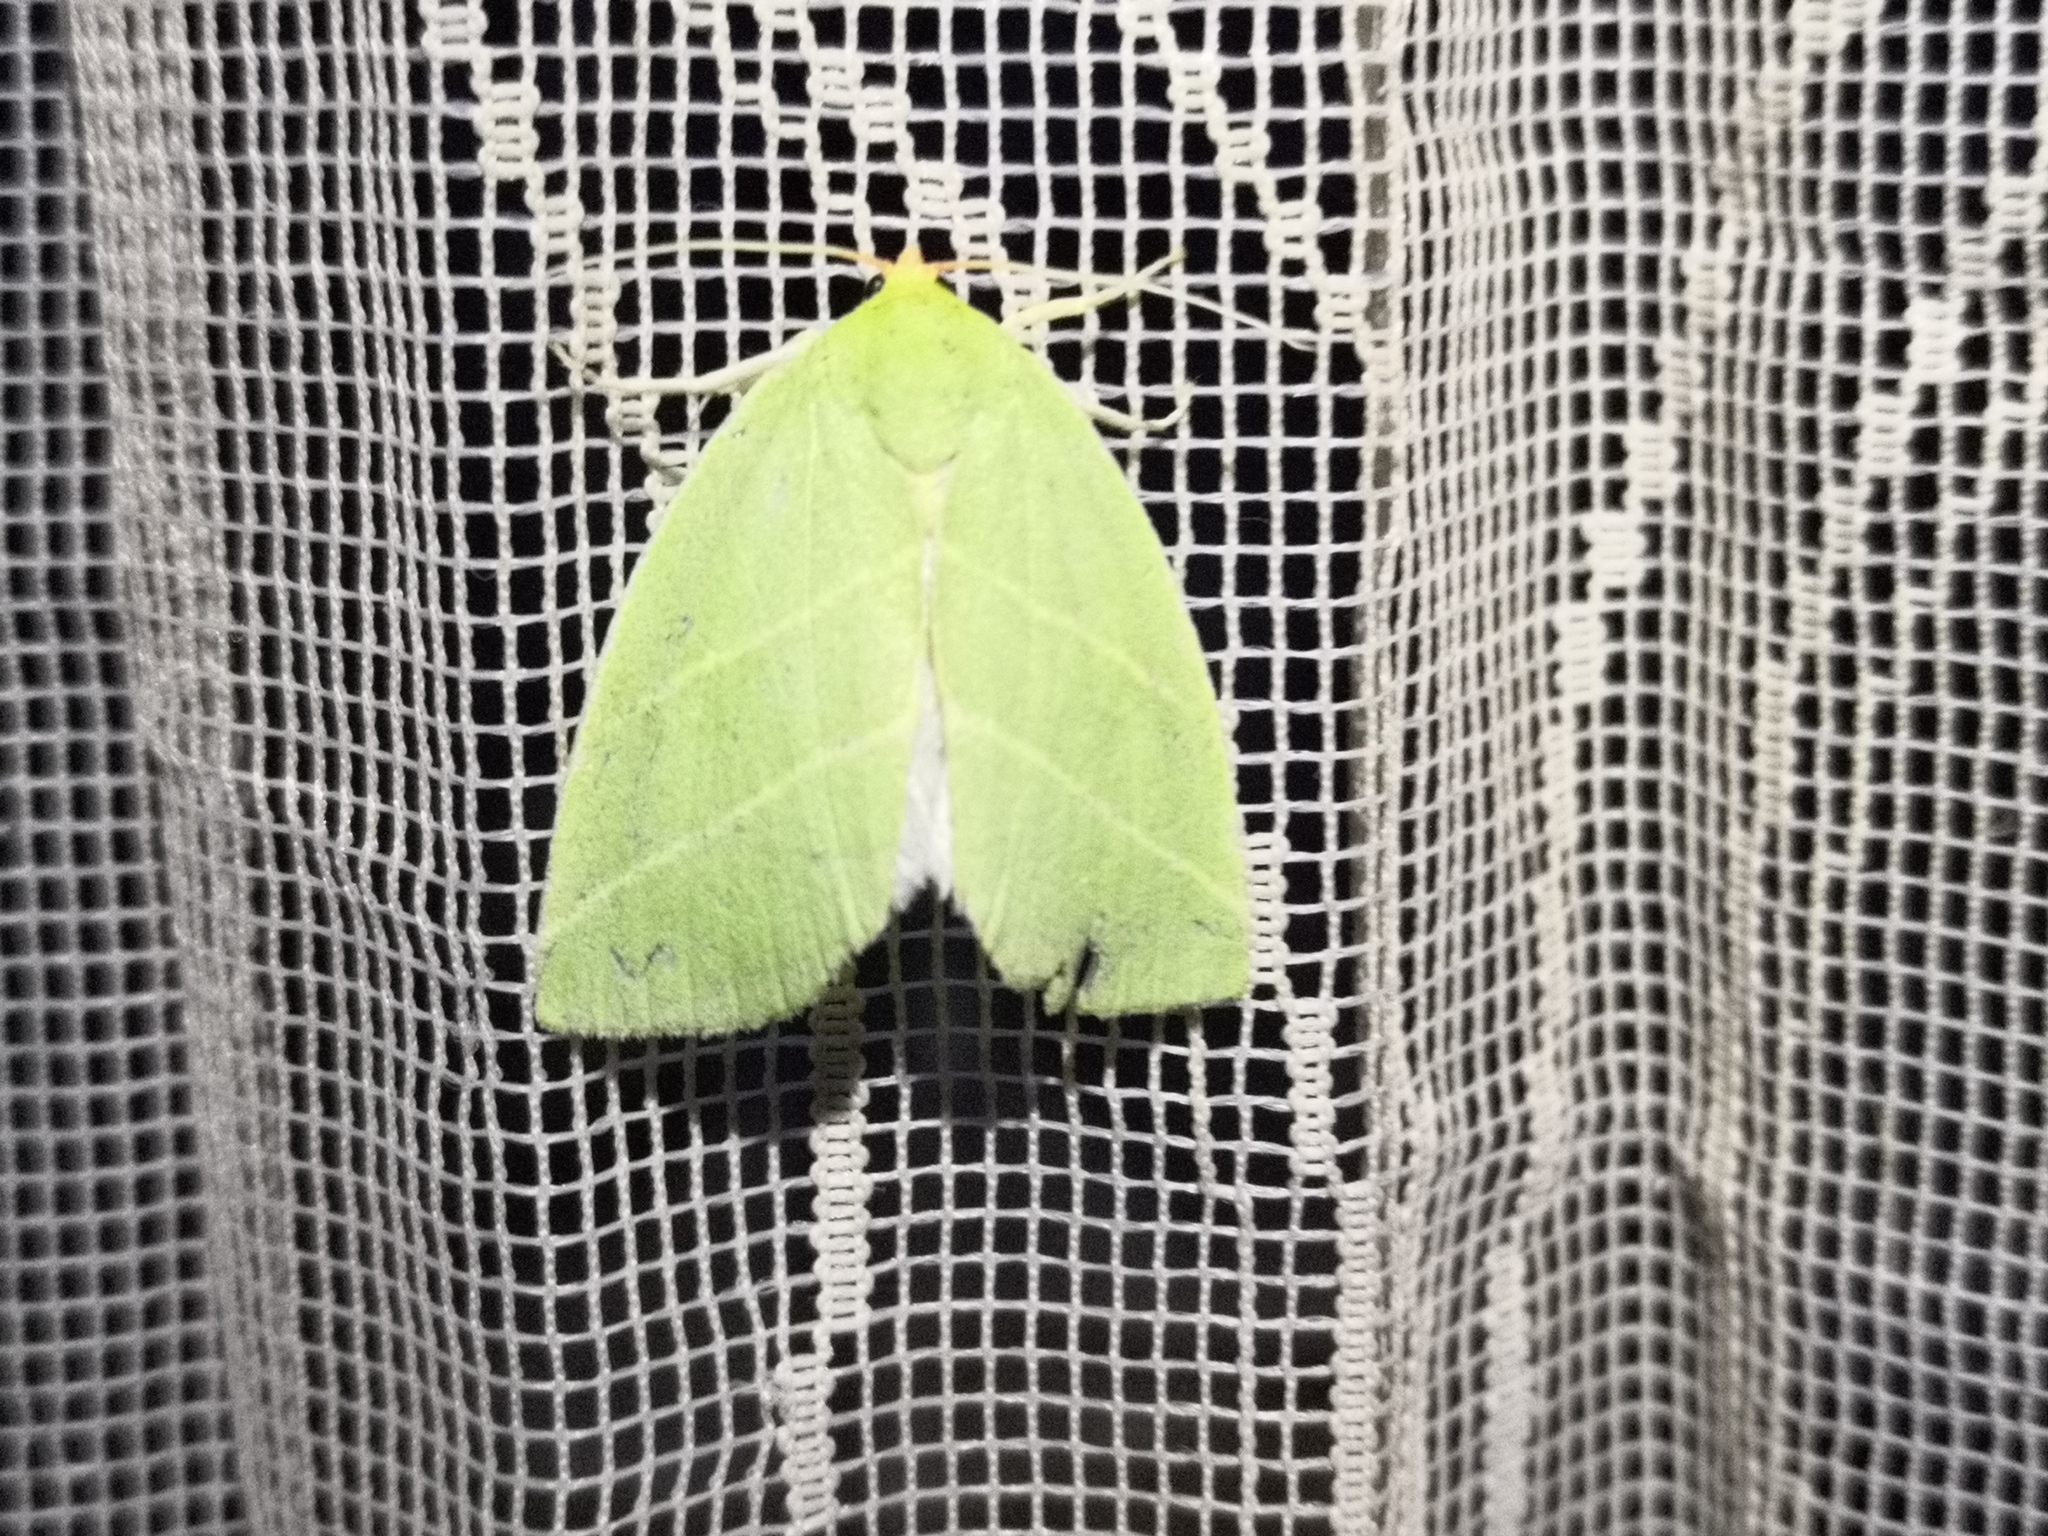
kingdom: Animalia
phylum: Arthropoda
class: Insecta
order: Lepidoptera
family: Nolidae
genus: Bena
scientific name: Bena bicolorana
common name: Scarce silver-lines
